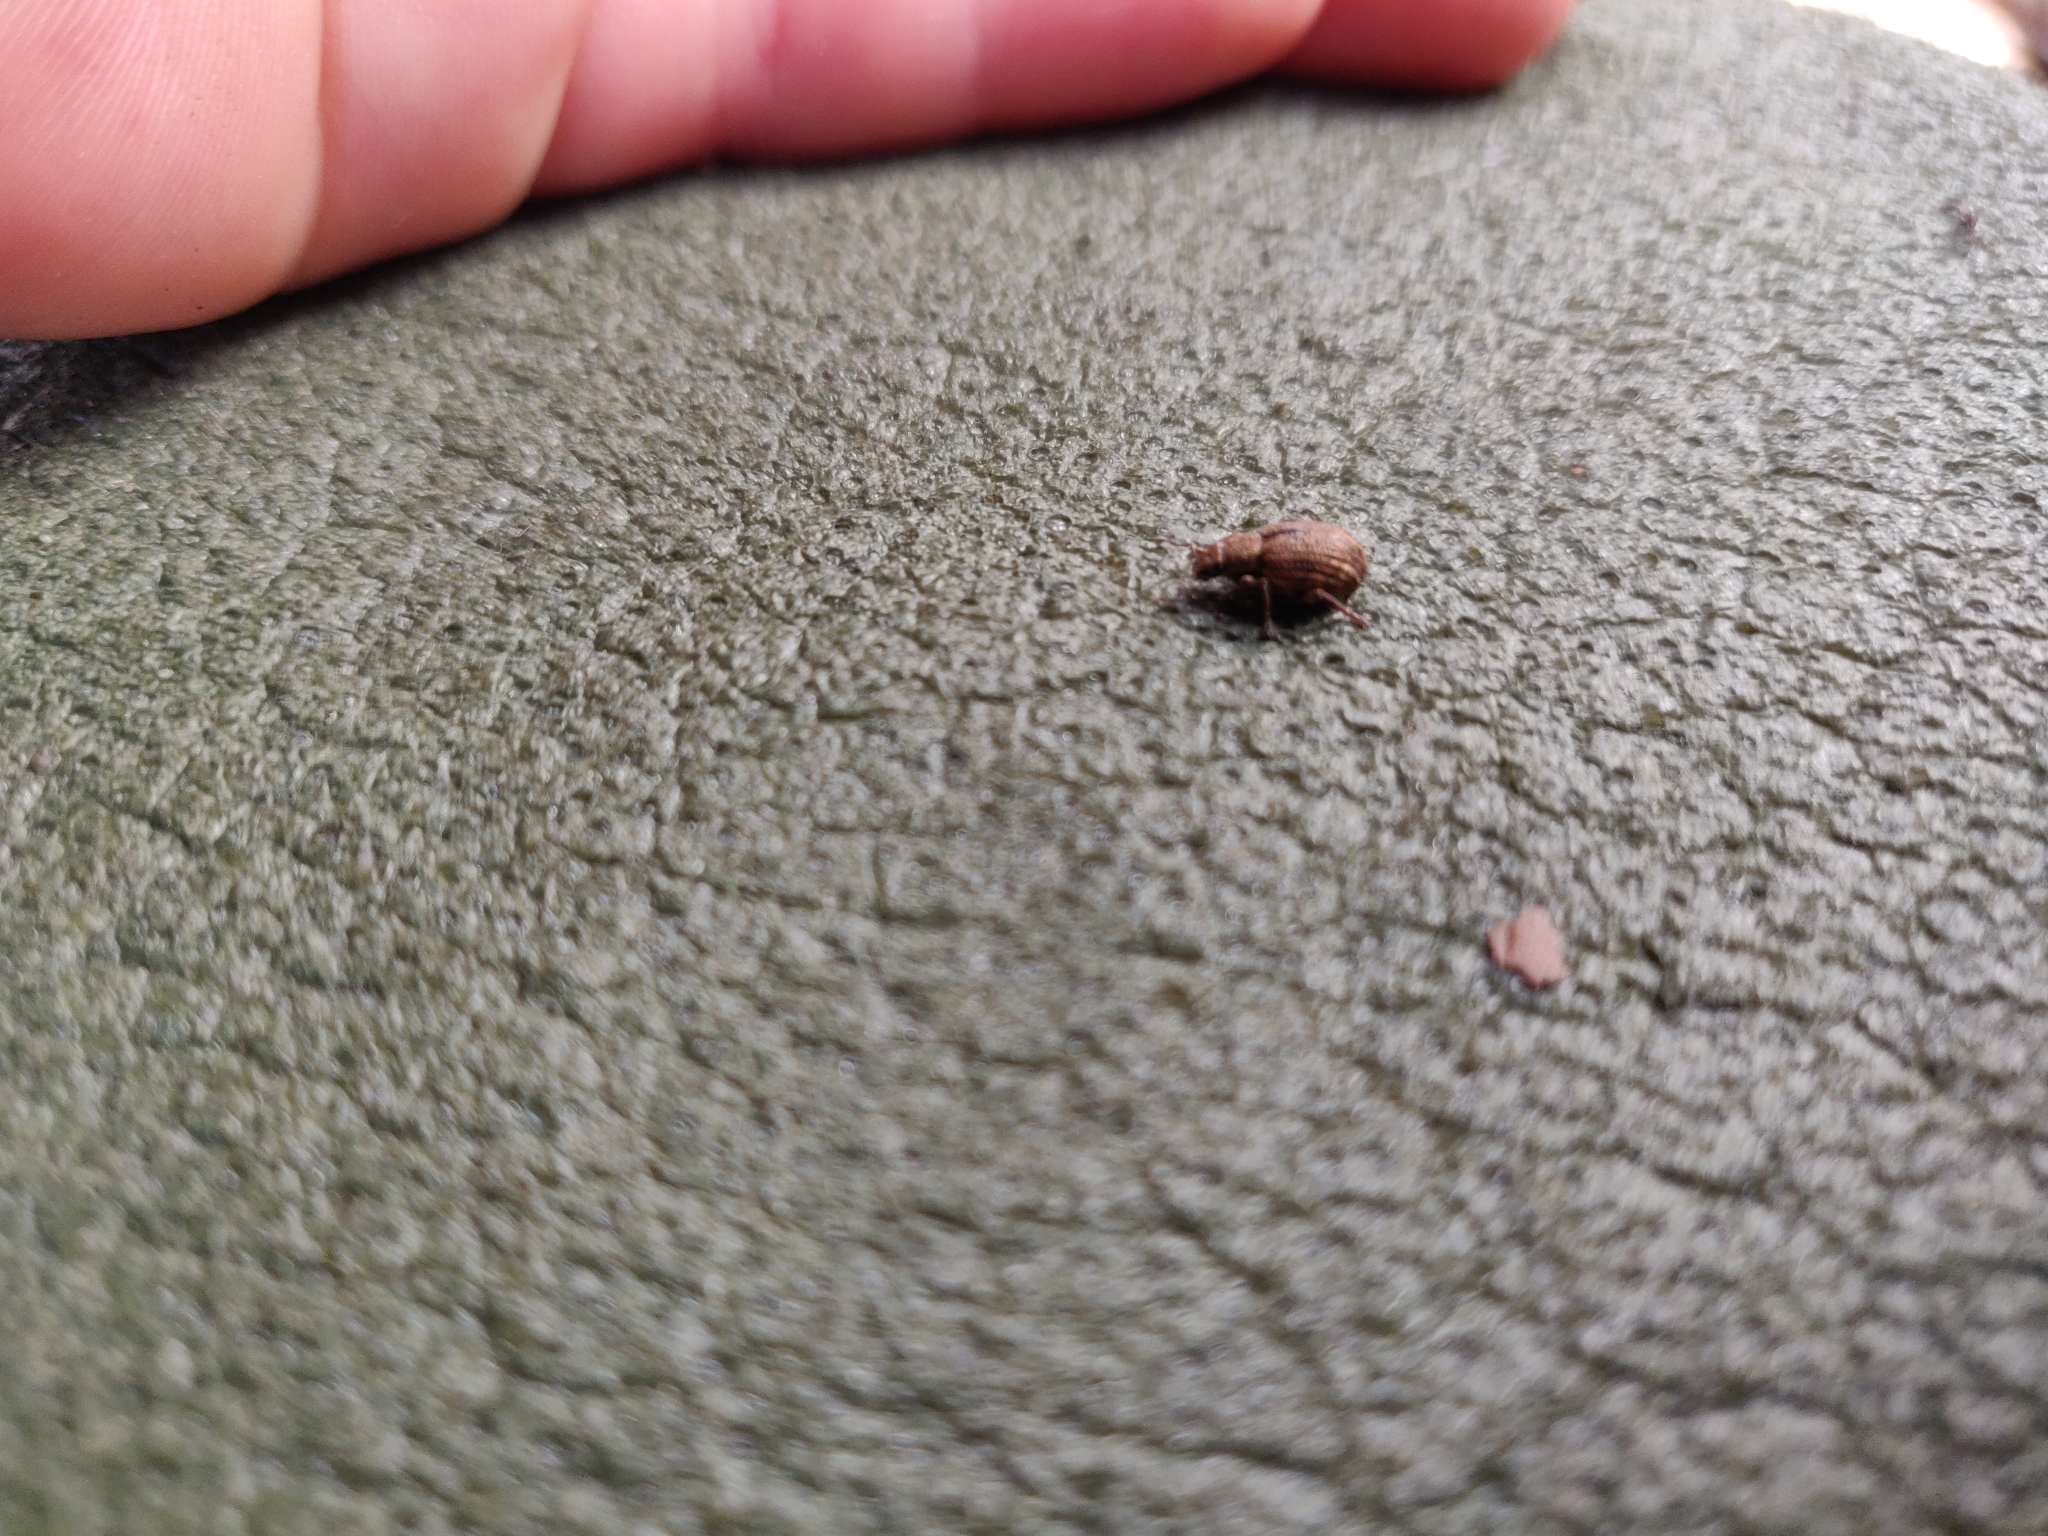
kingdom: Animalia
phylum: Arthropoda
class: Insecta
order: Coleoptera
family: Curculionidae
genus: Strophosoma
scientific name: Strophosoma melanogrammum
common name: Weevil
